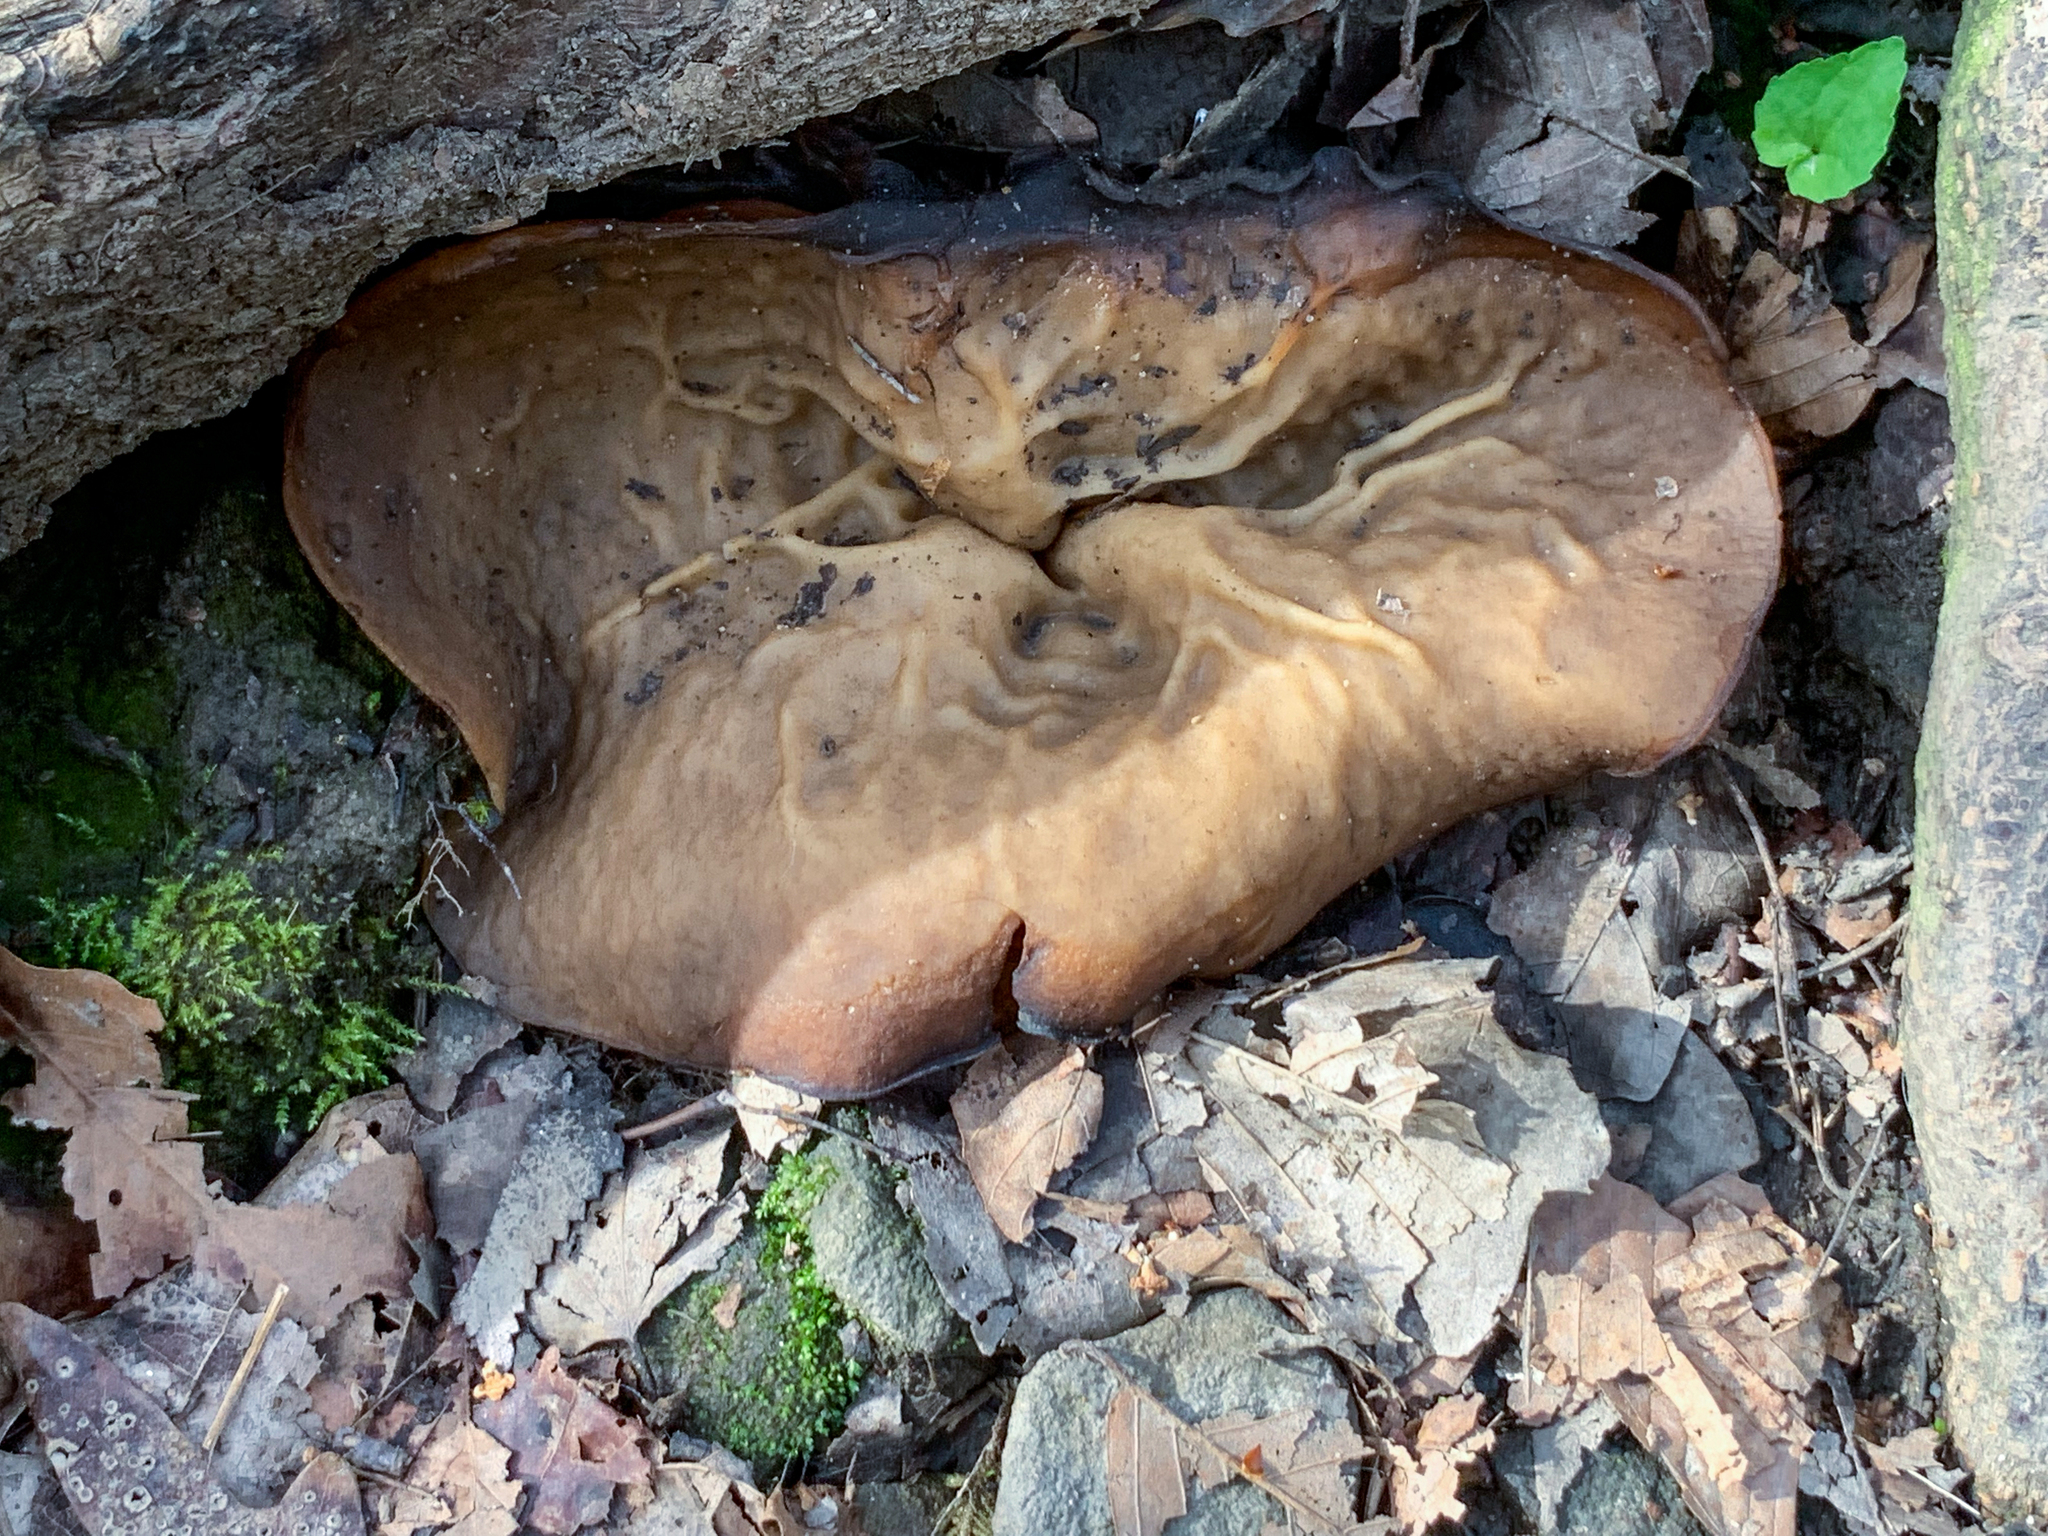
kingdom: Fungi
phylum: Ascomycota
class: Pezizomycetes
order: Pezizales
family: Morchellaceae
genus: Disciotis
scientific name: Disciotis venosa
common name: Bleach cup
